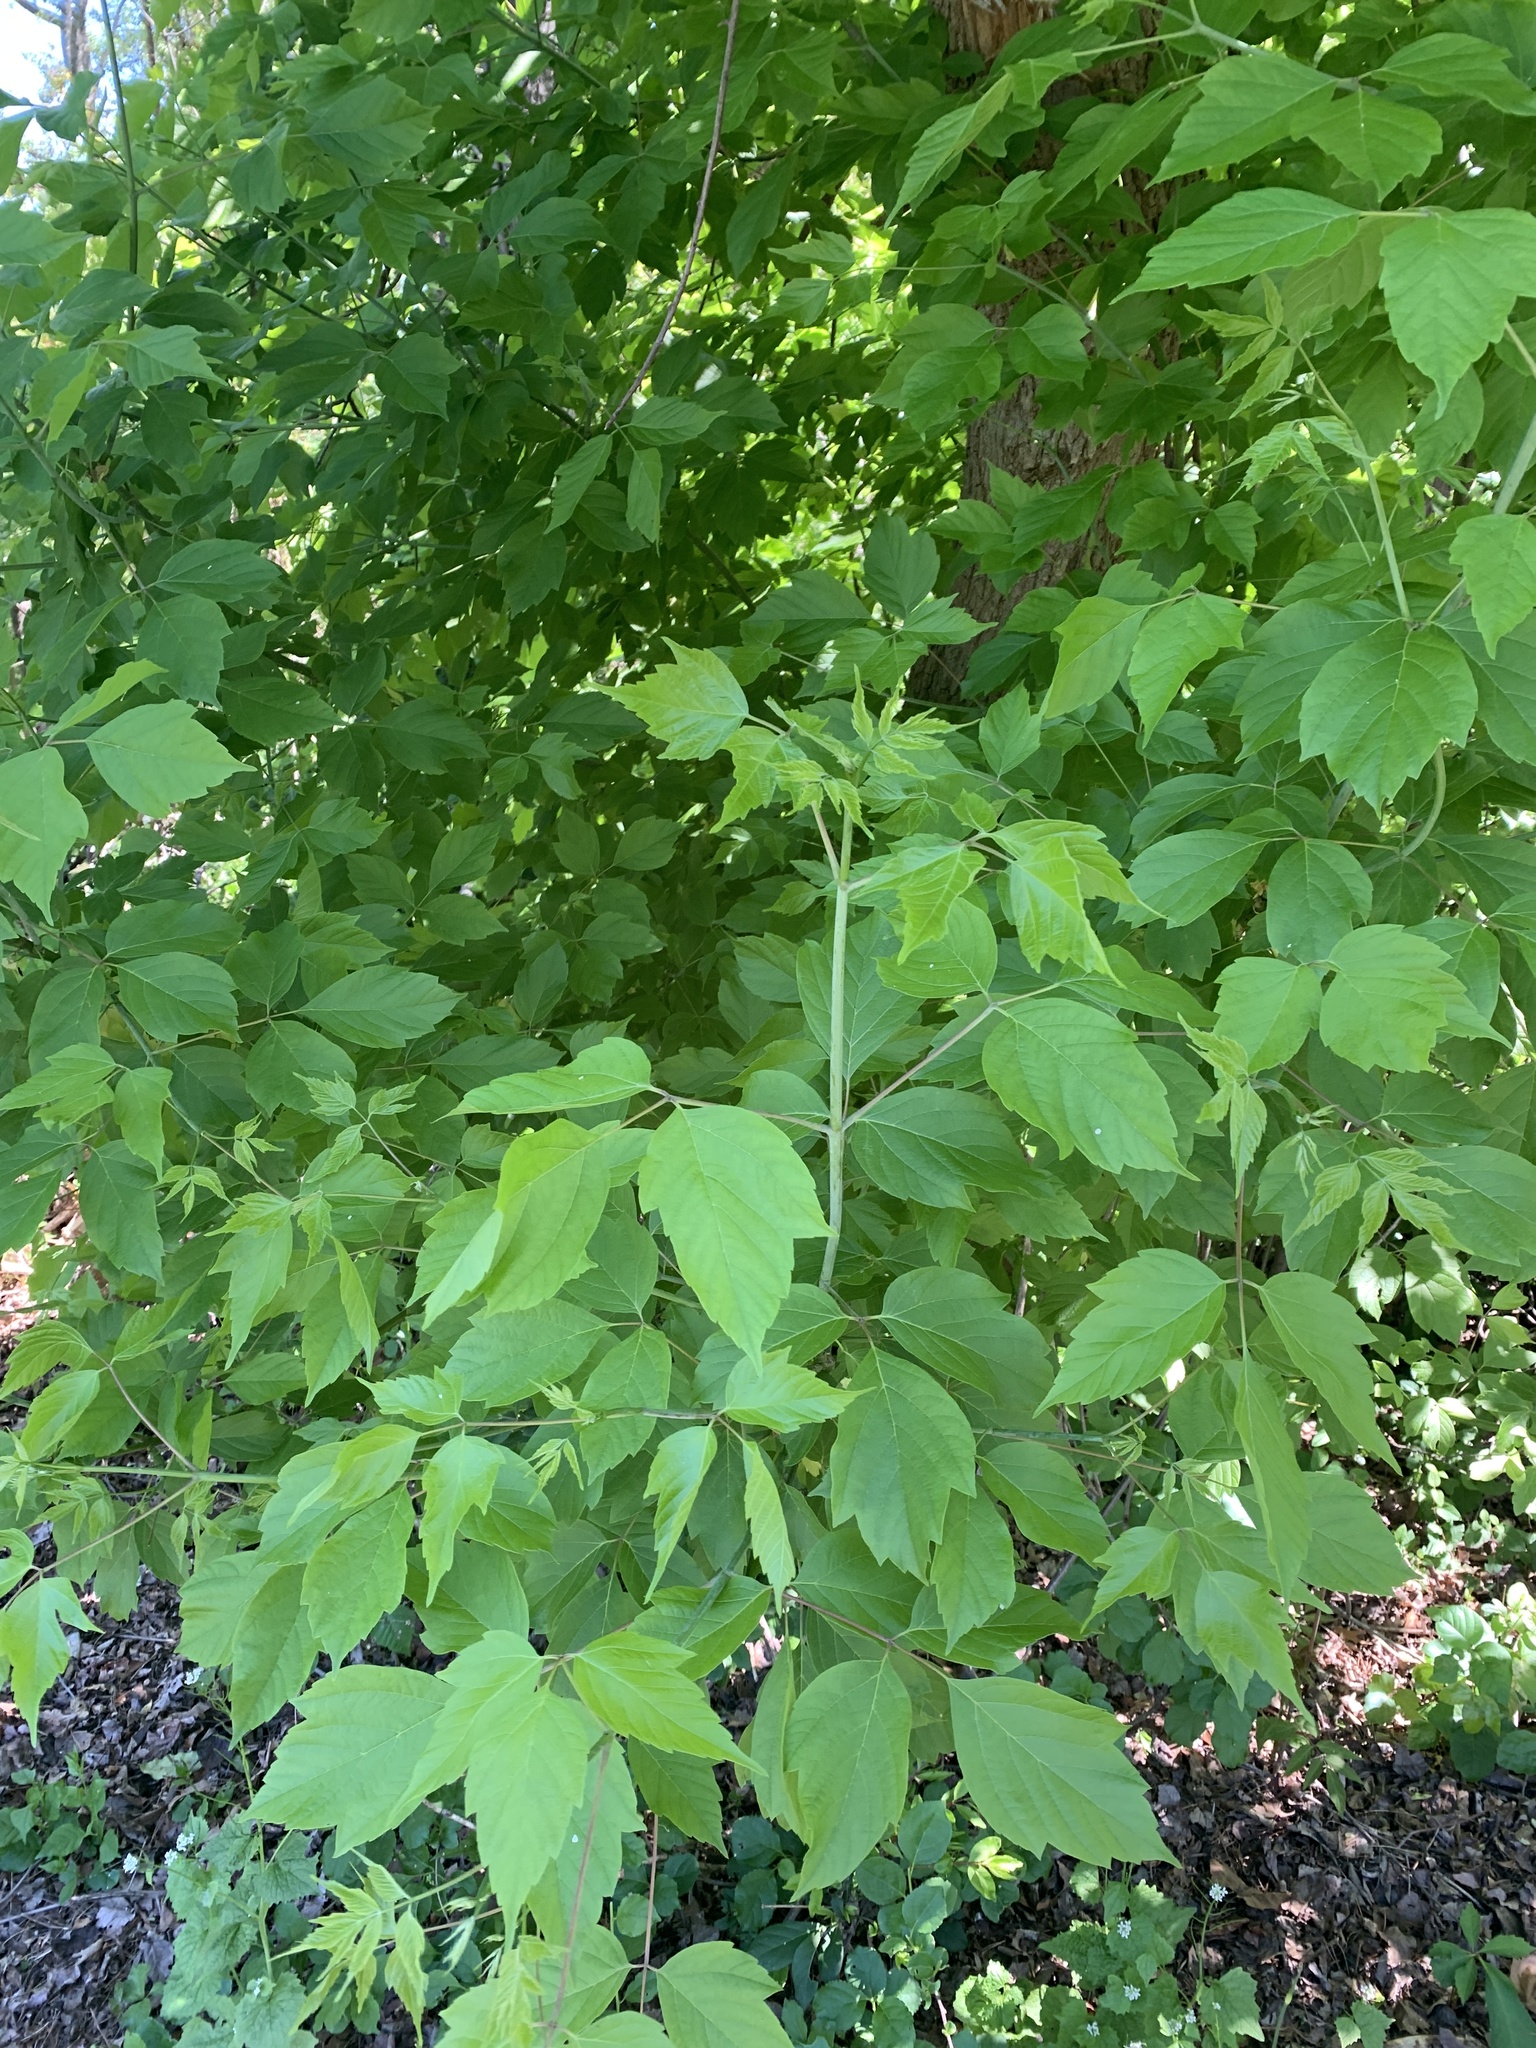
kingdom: Plantae
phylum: Tracheophyta
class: Magnoliopsida
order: Sapindales
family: Sapindaceae
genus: Acer
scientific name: Acer negundo
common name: Ashleaf maple
